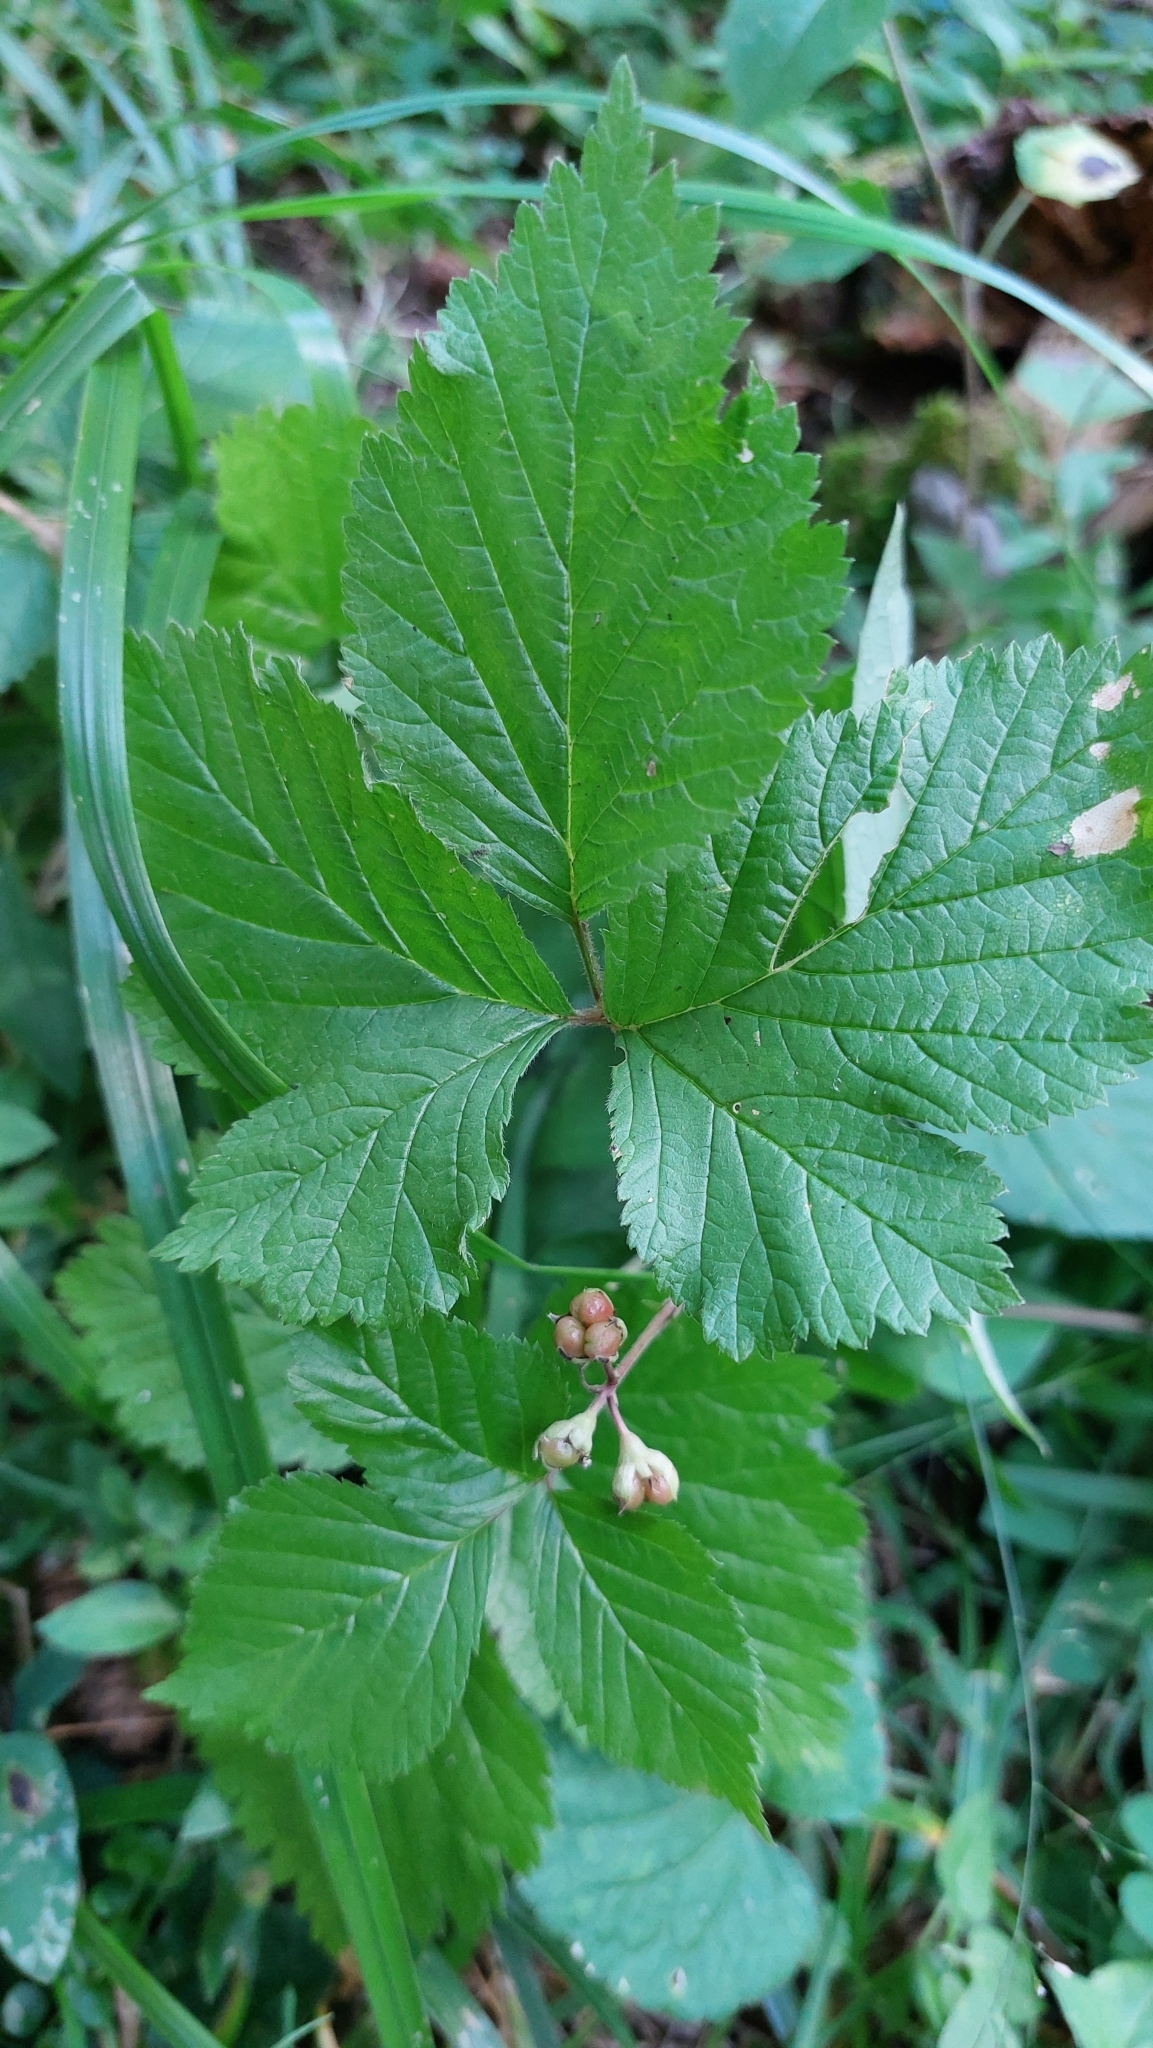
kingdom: Plantae
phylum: Tracheophyta
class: Magnoliopsida
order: Rosales
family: Rosaceae
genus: Rubus
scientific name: Rubus saxatilis
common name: Stone bramble
